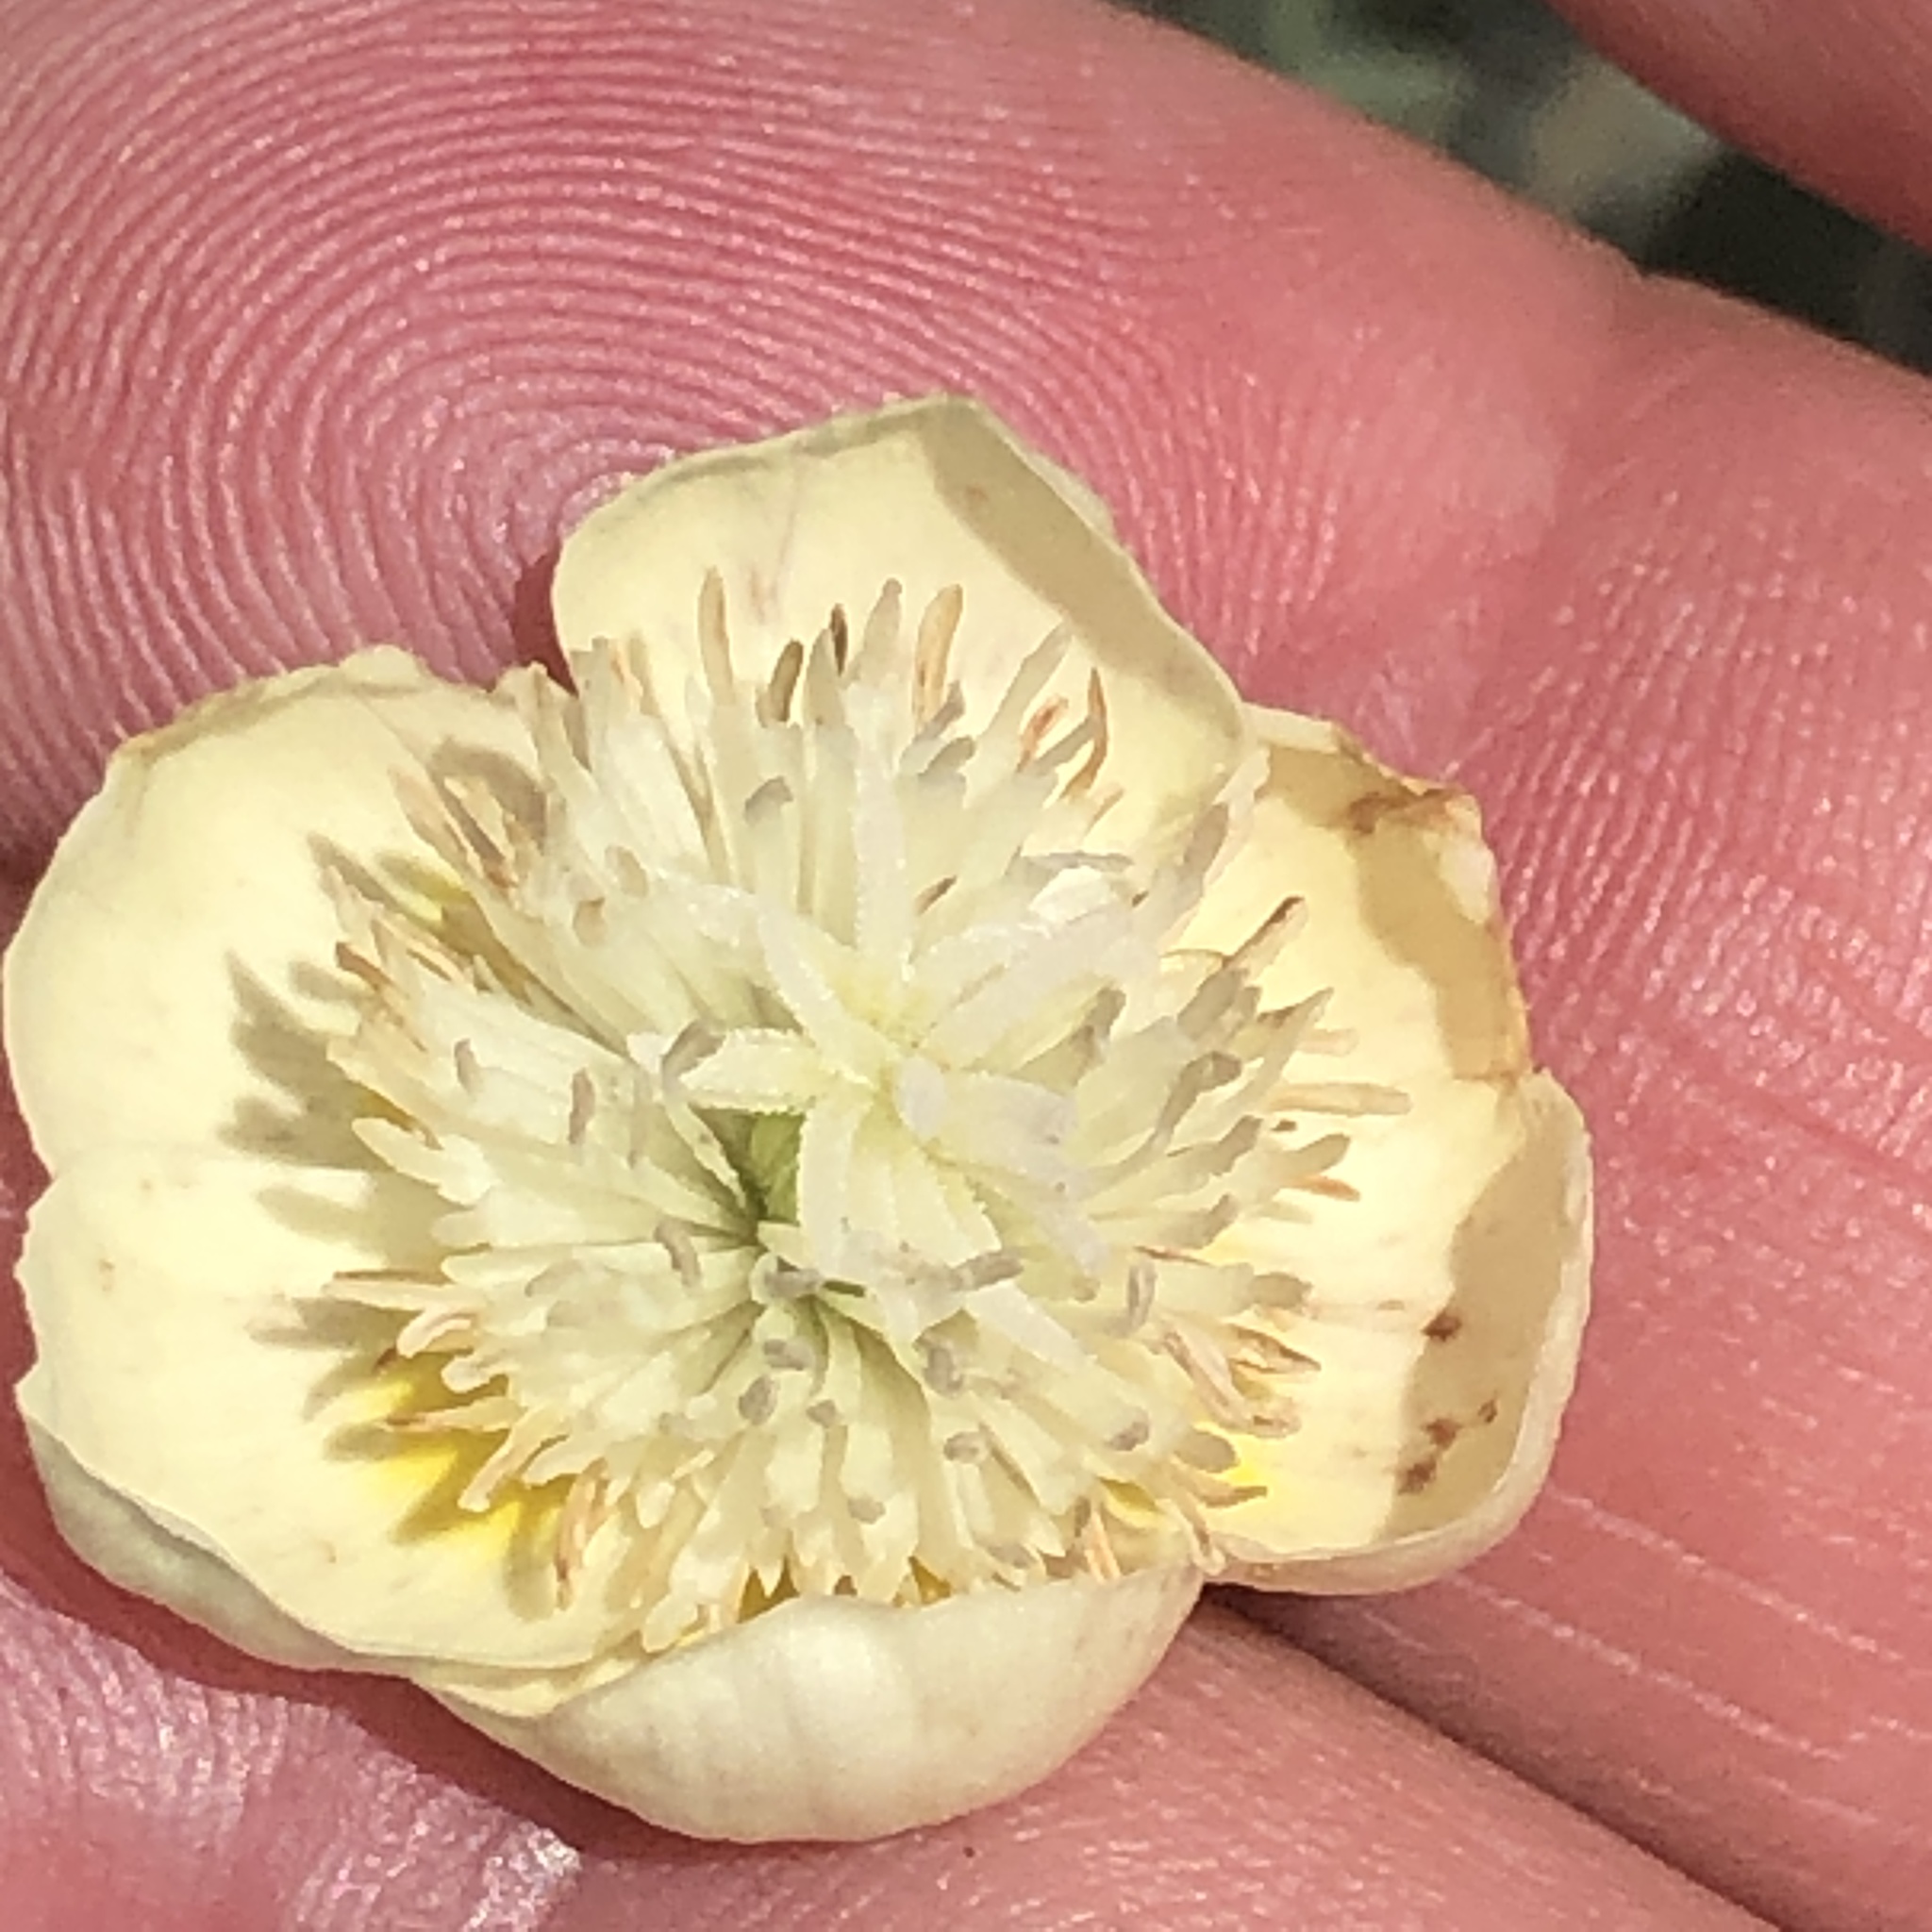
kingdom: Plantae
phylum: Tracheophyta
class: Magnoliopsida
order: Ranunculales
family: Papaveraceae
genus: Platystemon
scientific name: Platystemon californicus
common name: Cream-cups
